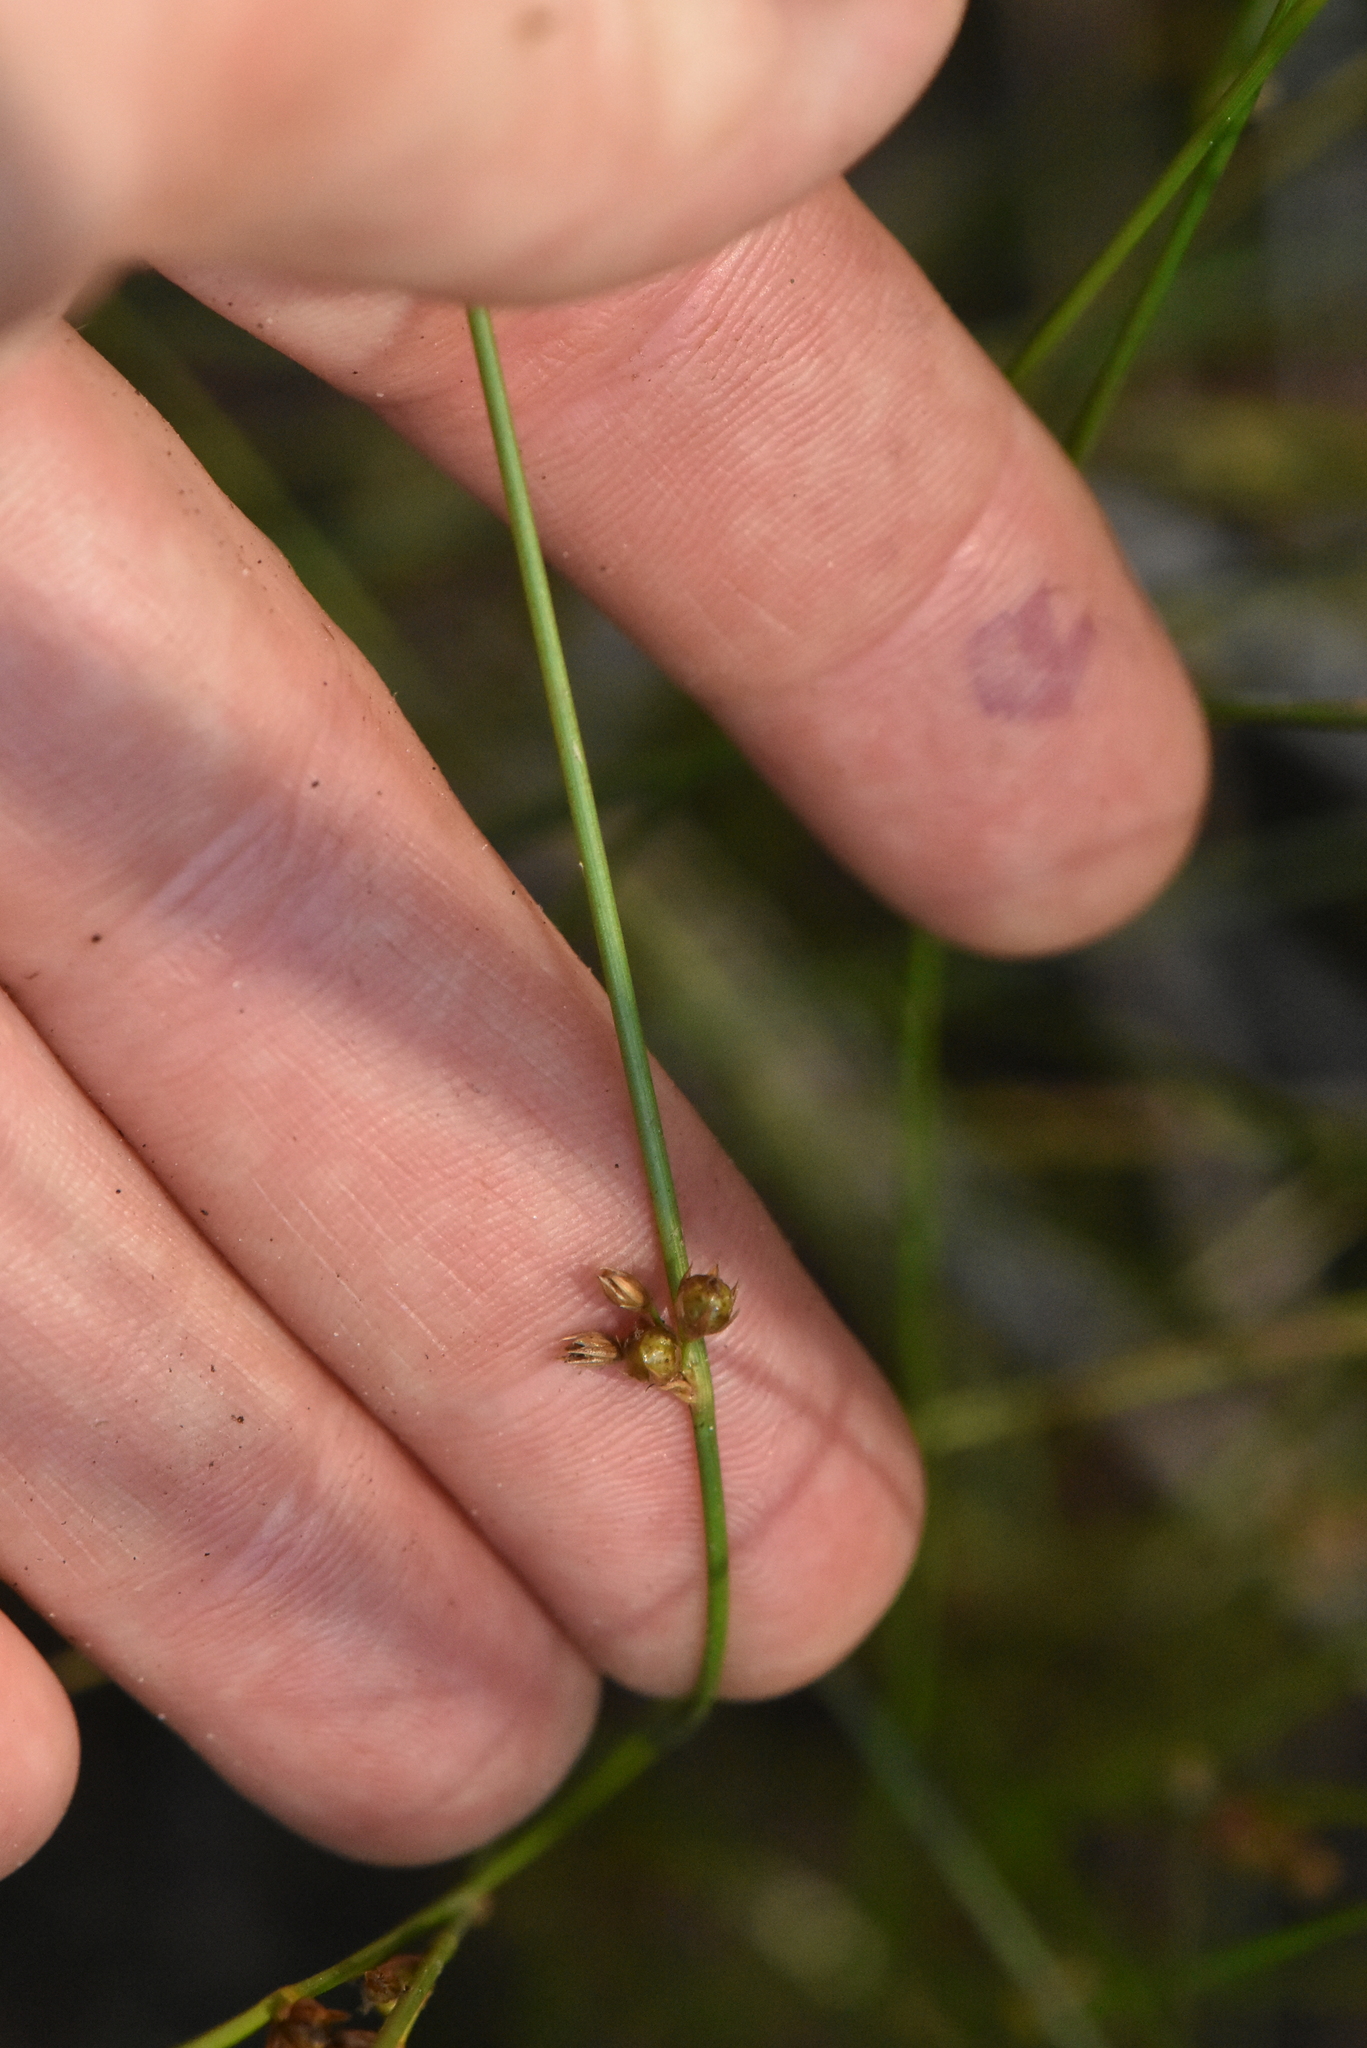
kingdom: Plantae
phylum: Tracheophyta
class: Liliopsida
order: Poales
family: Juncaceae
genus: Juncus
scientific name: Juncus filiformis
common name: Thread rush
